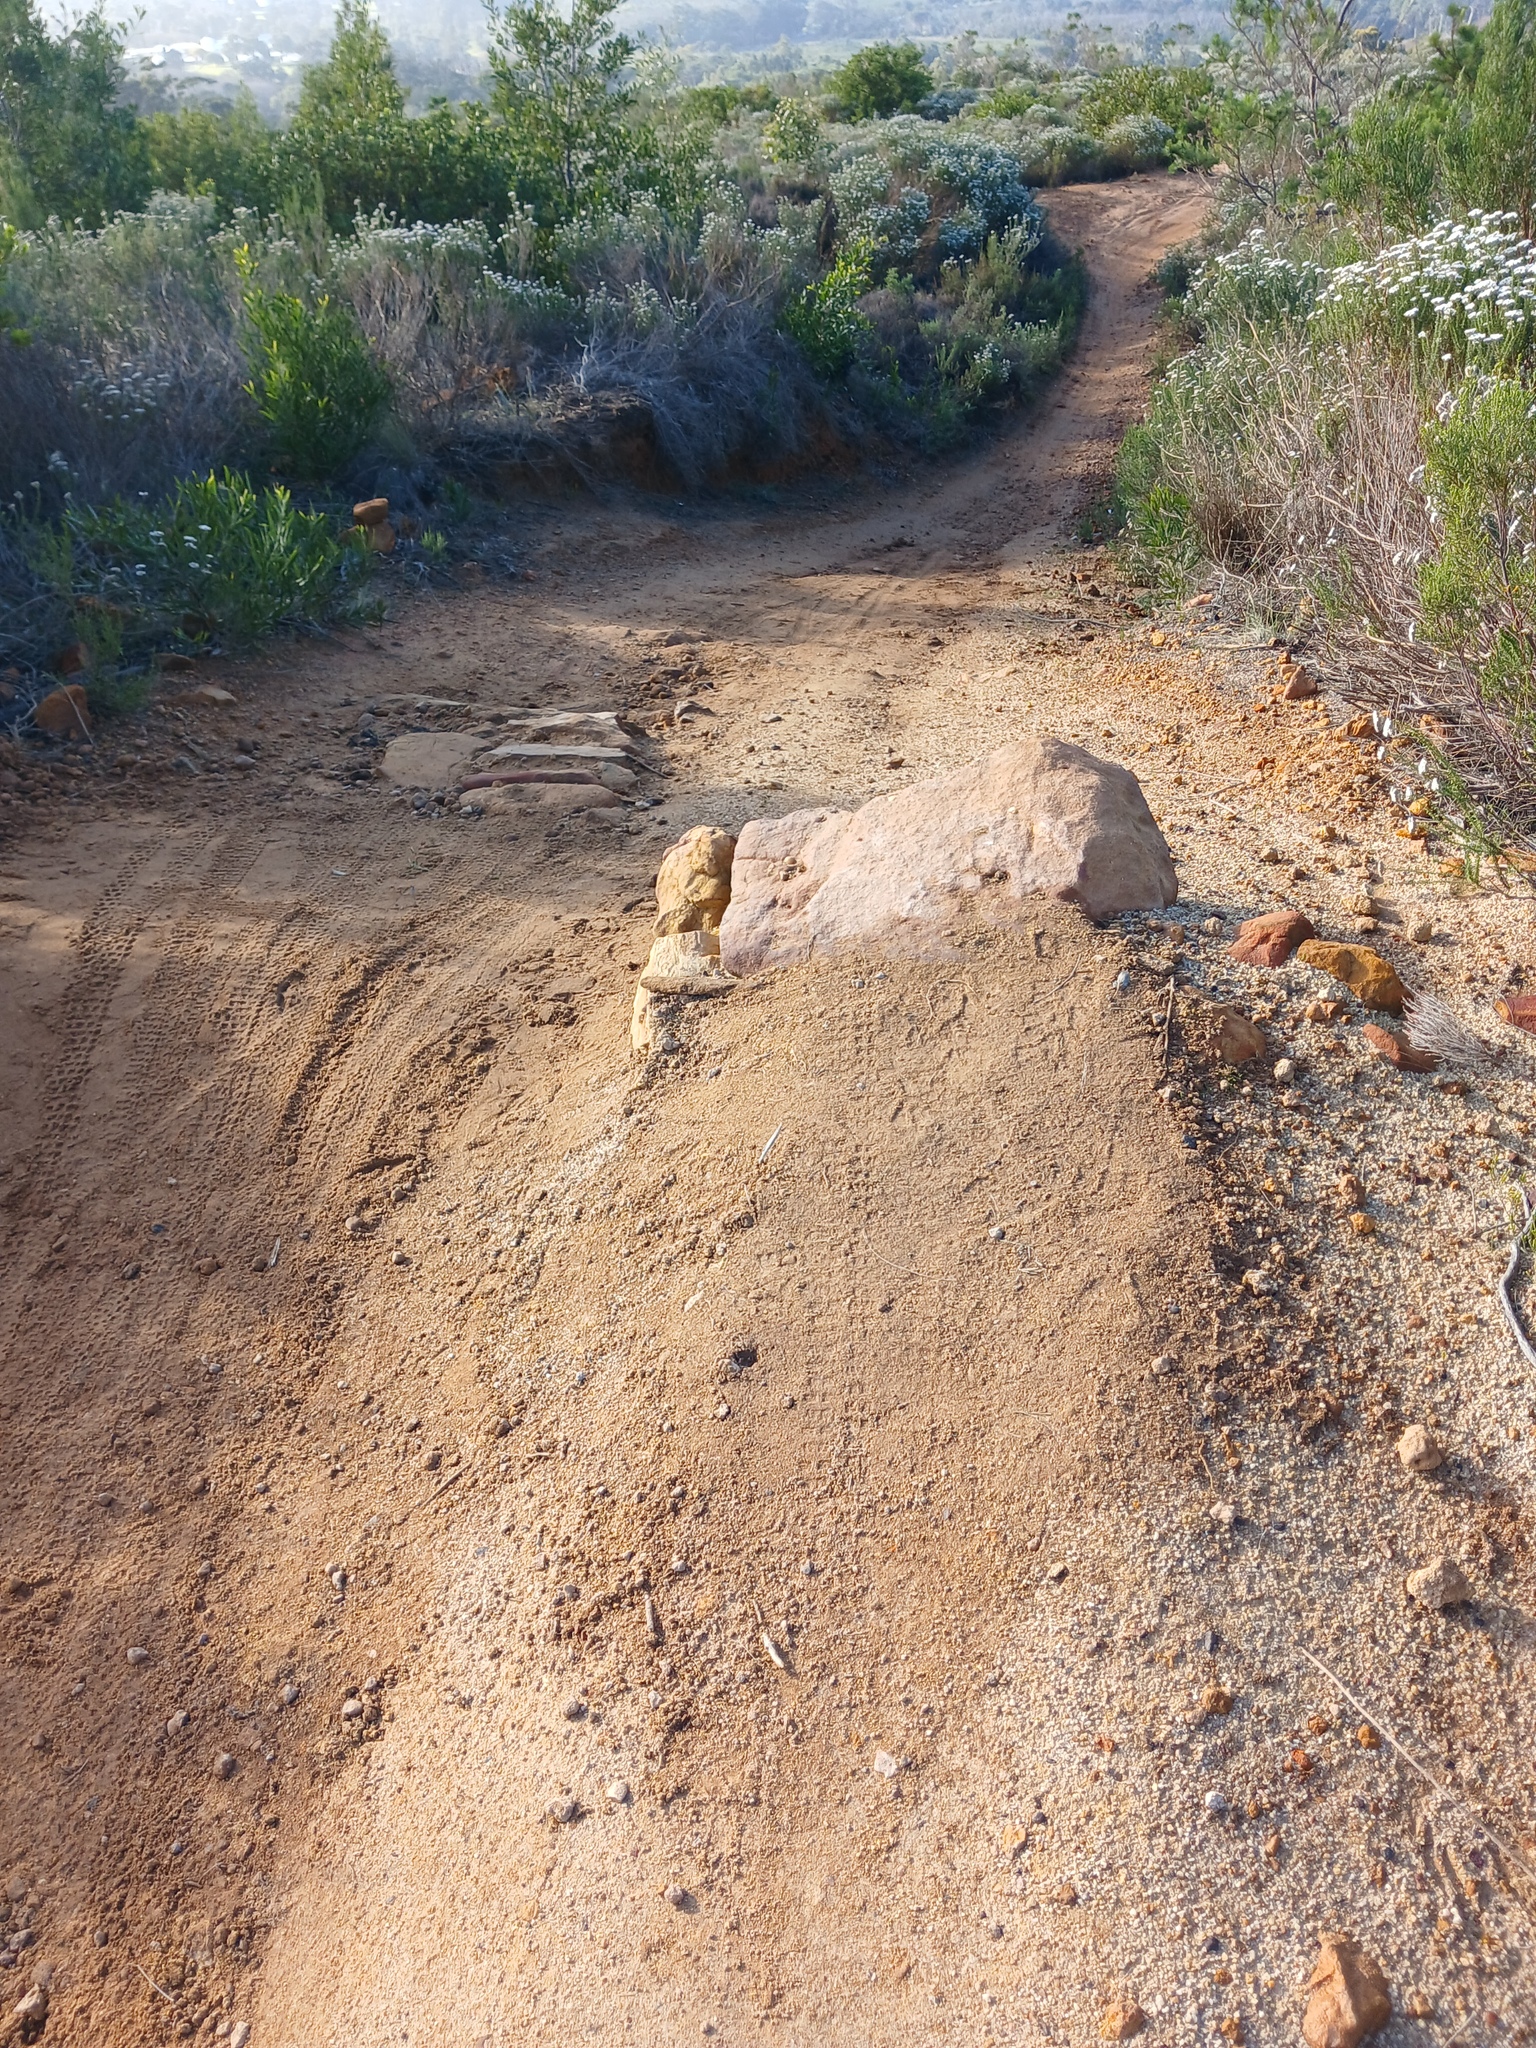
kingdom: Plantae
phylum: Tracheophyta
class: Magnoliopsida
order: Asterales
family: Asteraceae
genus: Metalasia
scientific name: Metalasia densa
